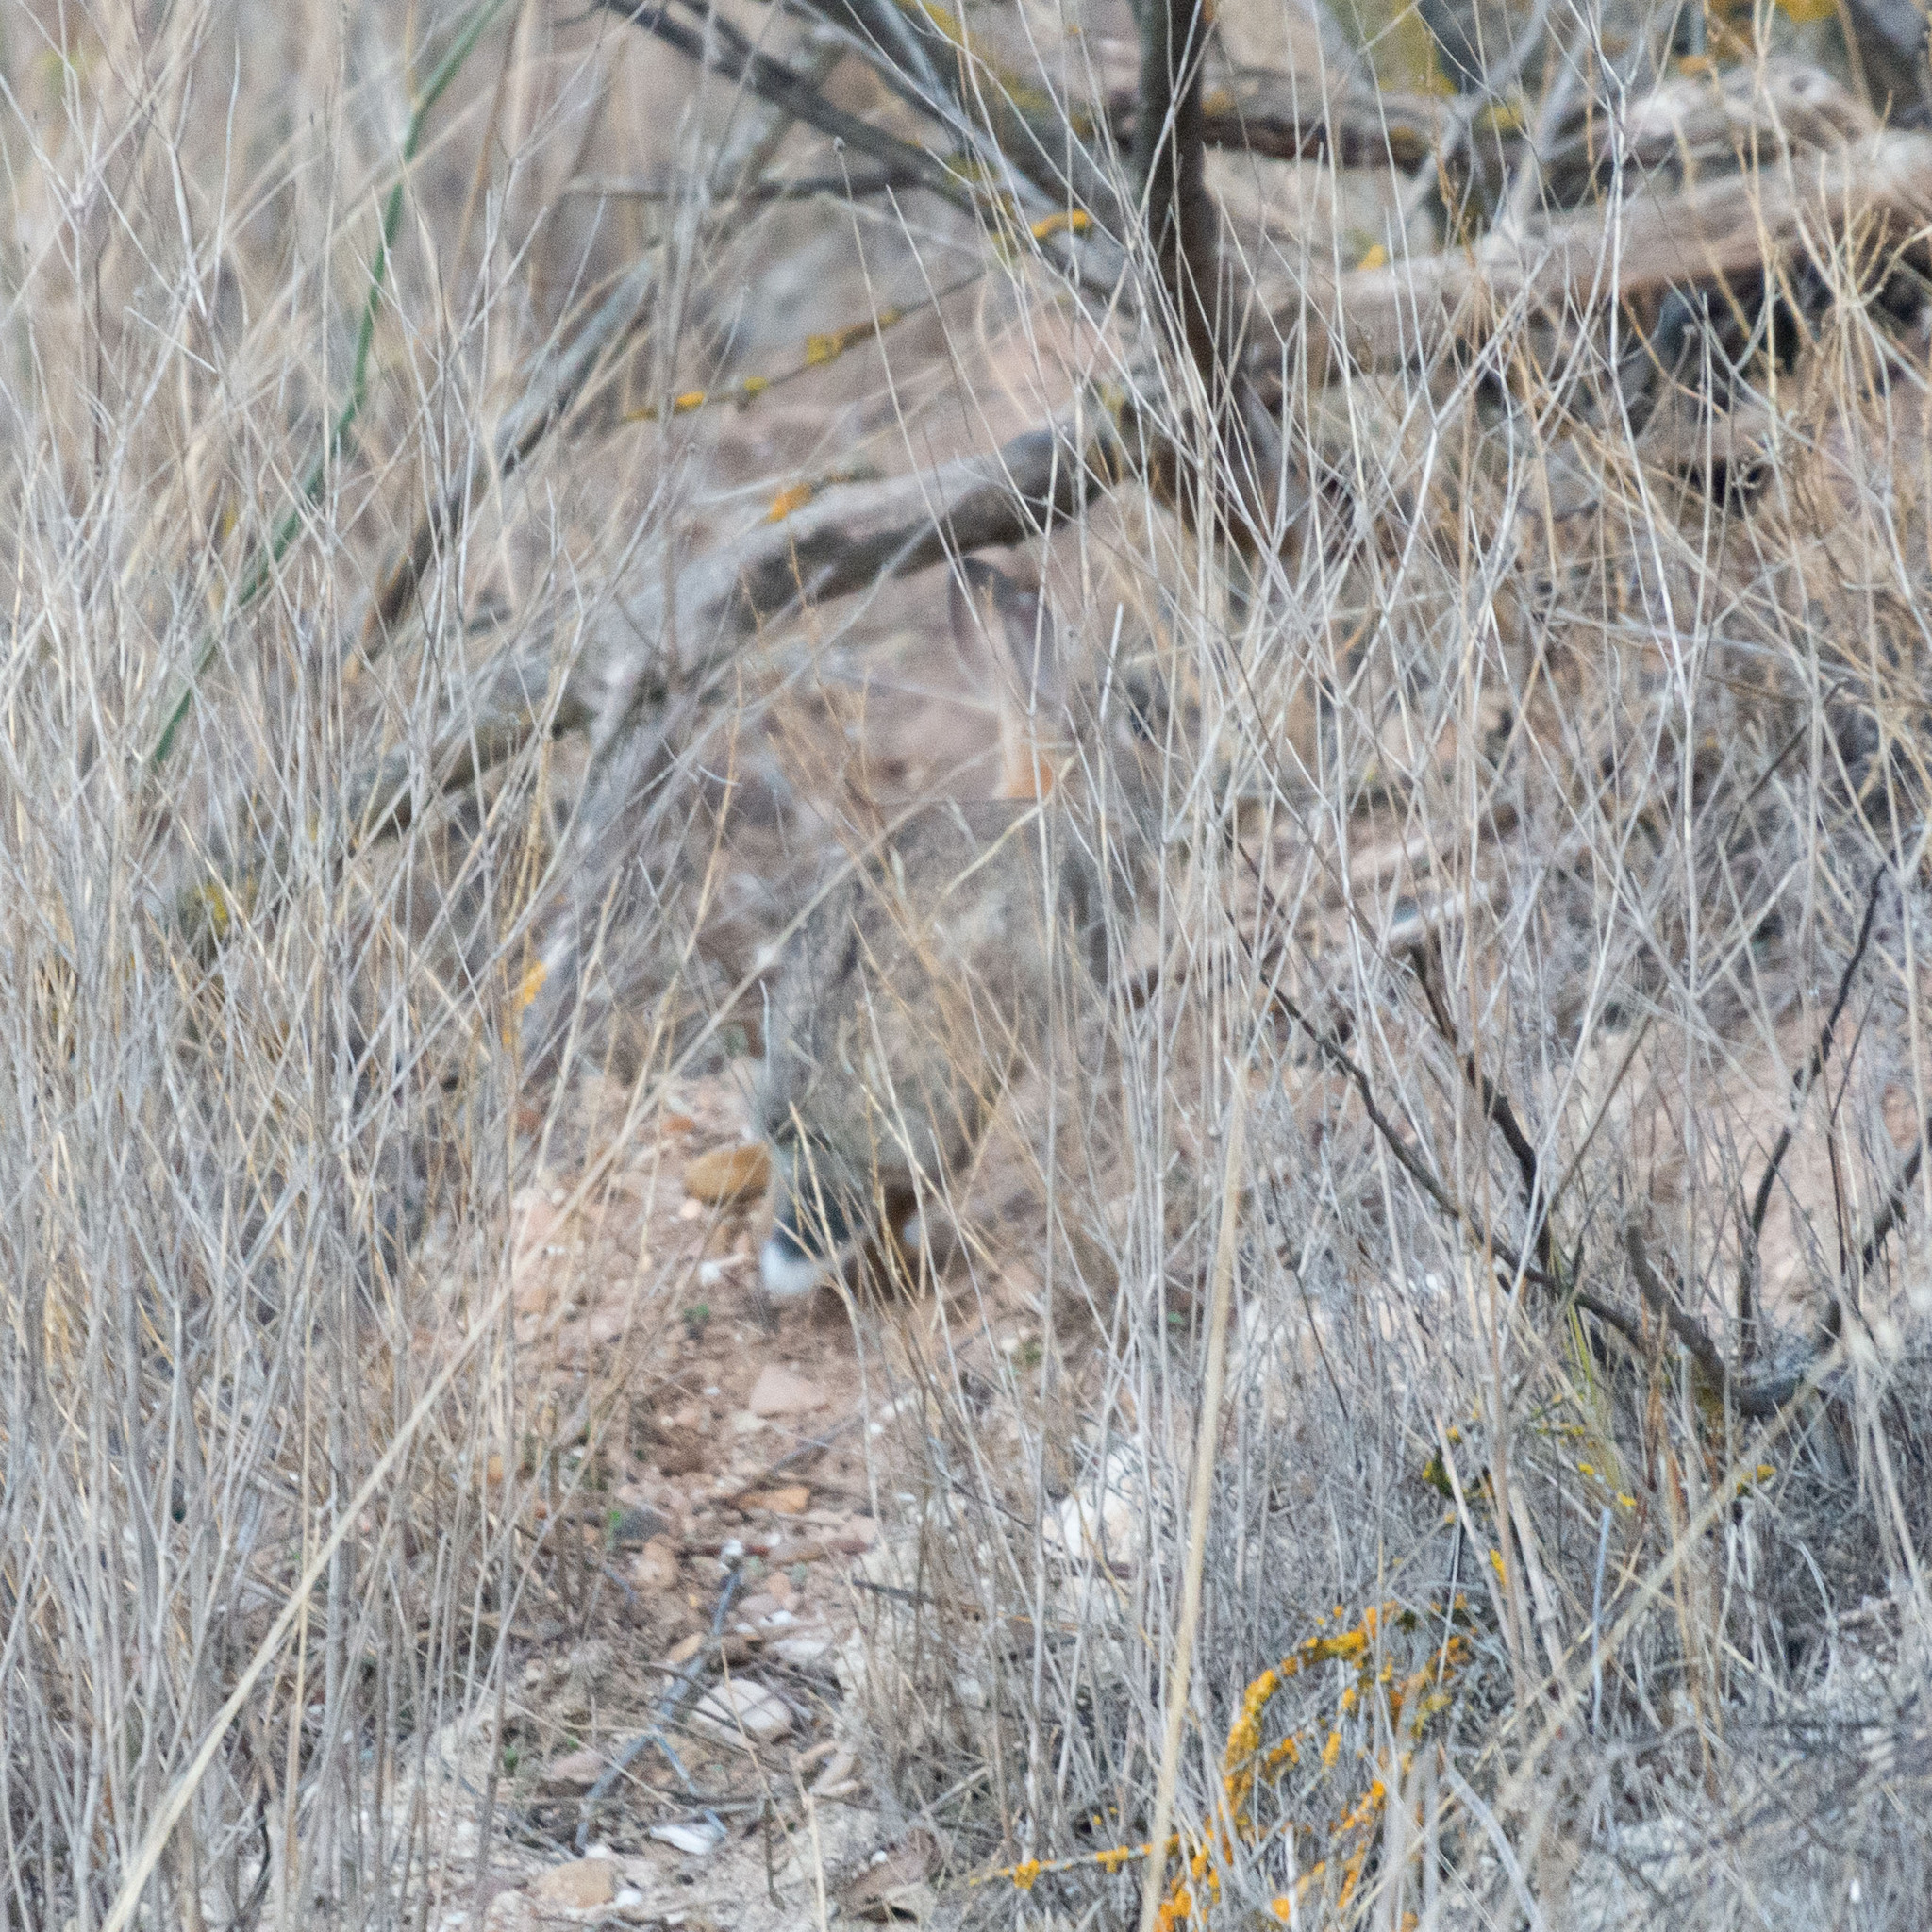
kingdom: Animalia
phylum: Chordata
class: Mammalia
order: Lagomorpha
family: Leporidae
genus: Oryctolagus
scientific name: Oryctolagus cuniculus
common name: European rabbit
